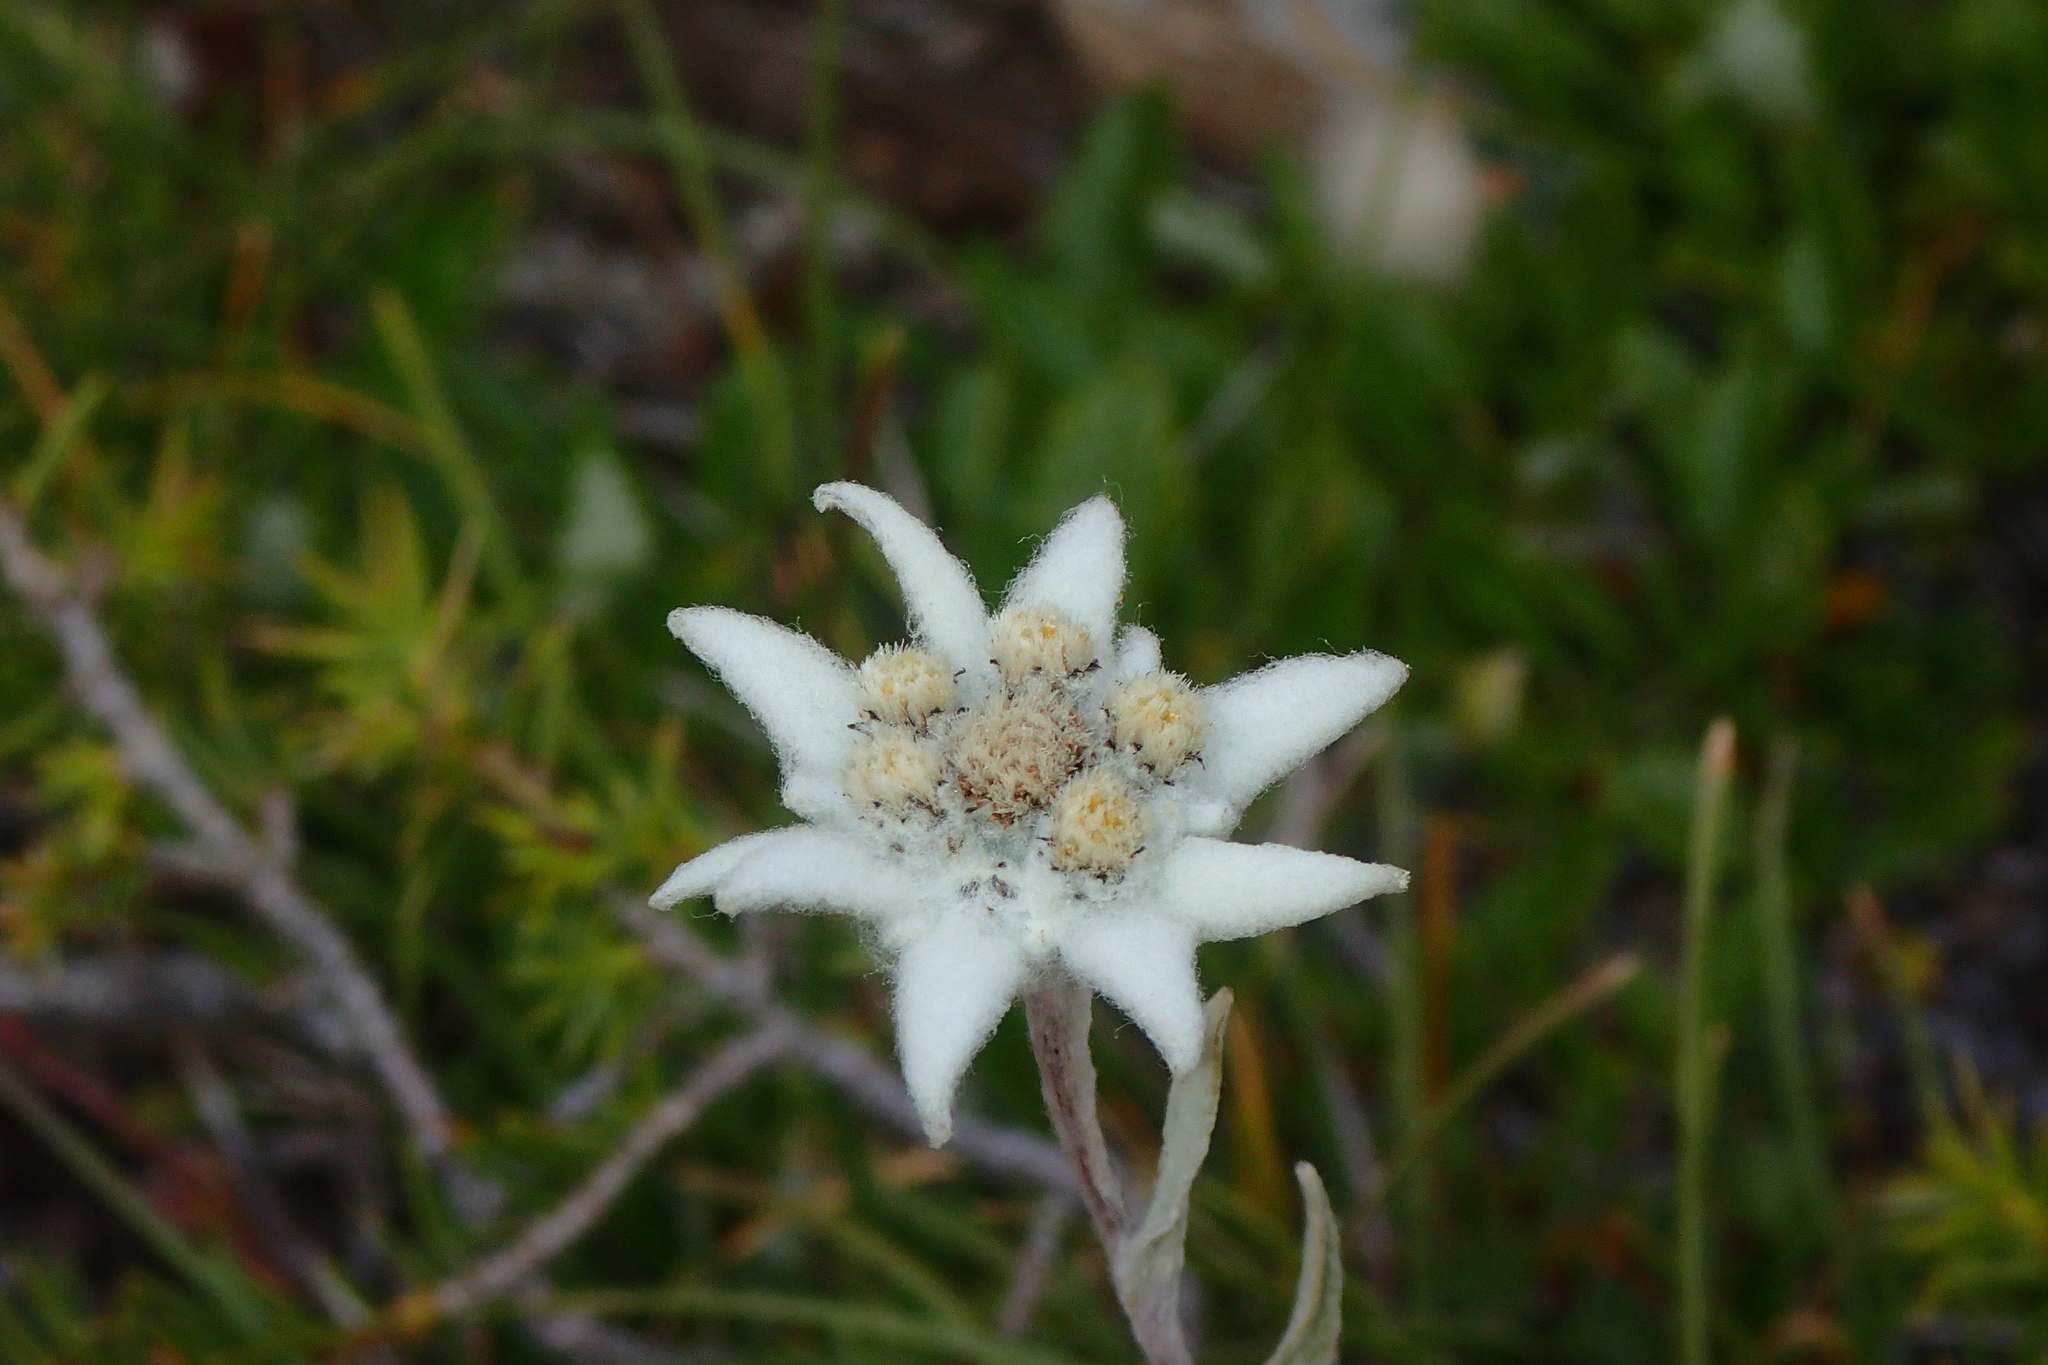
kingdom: Plantae
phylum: Tracheophyta
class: Magnoliopsida
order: Asterales
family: Asteraceae
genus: Leontopodium
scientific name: Leontopodium nivale
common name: Edelweiss
